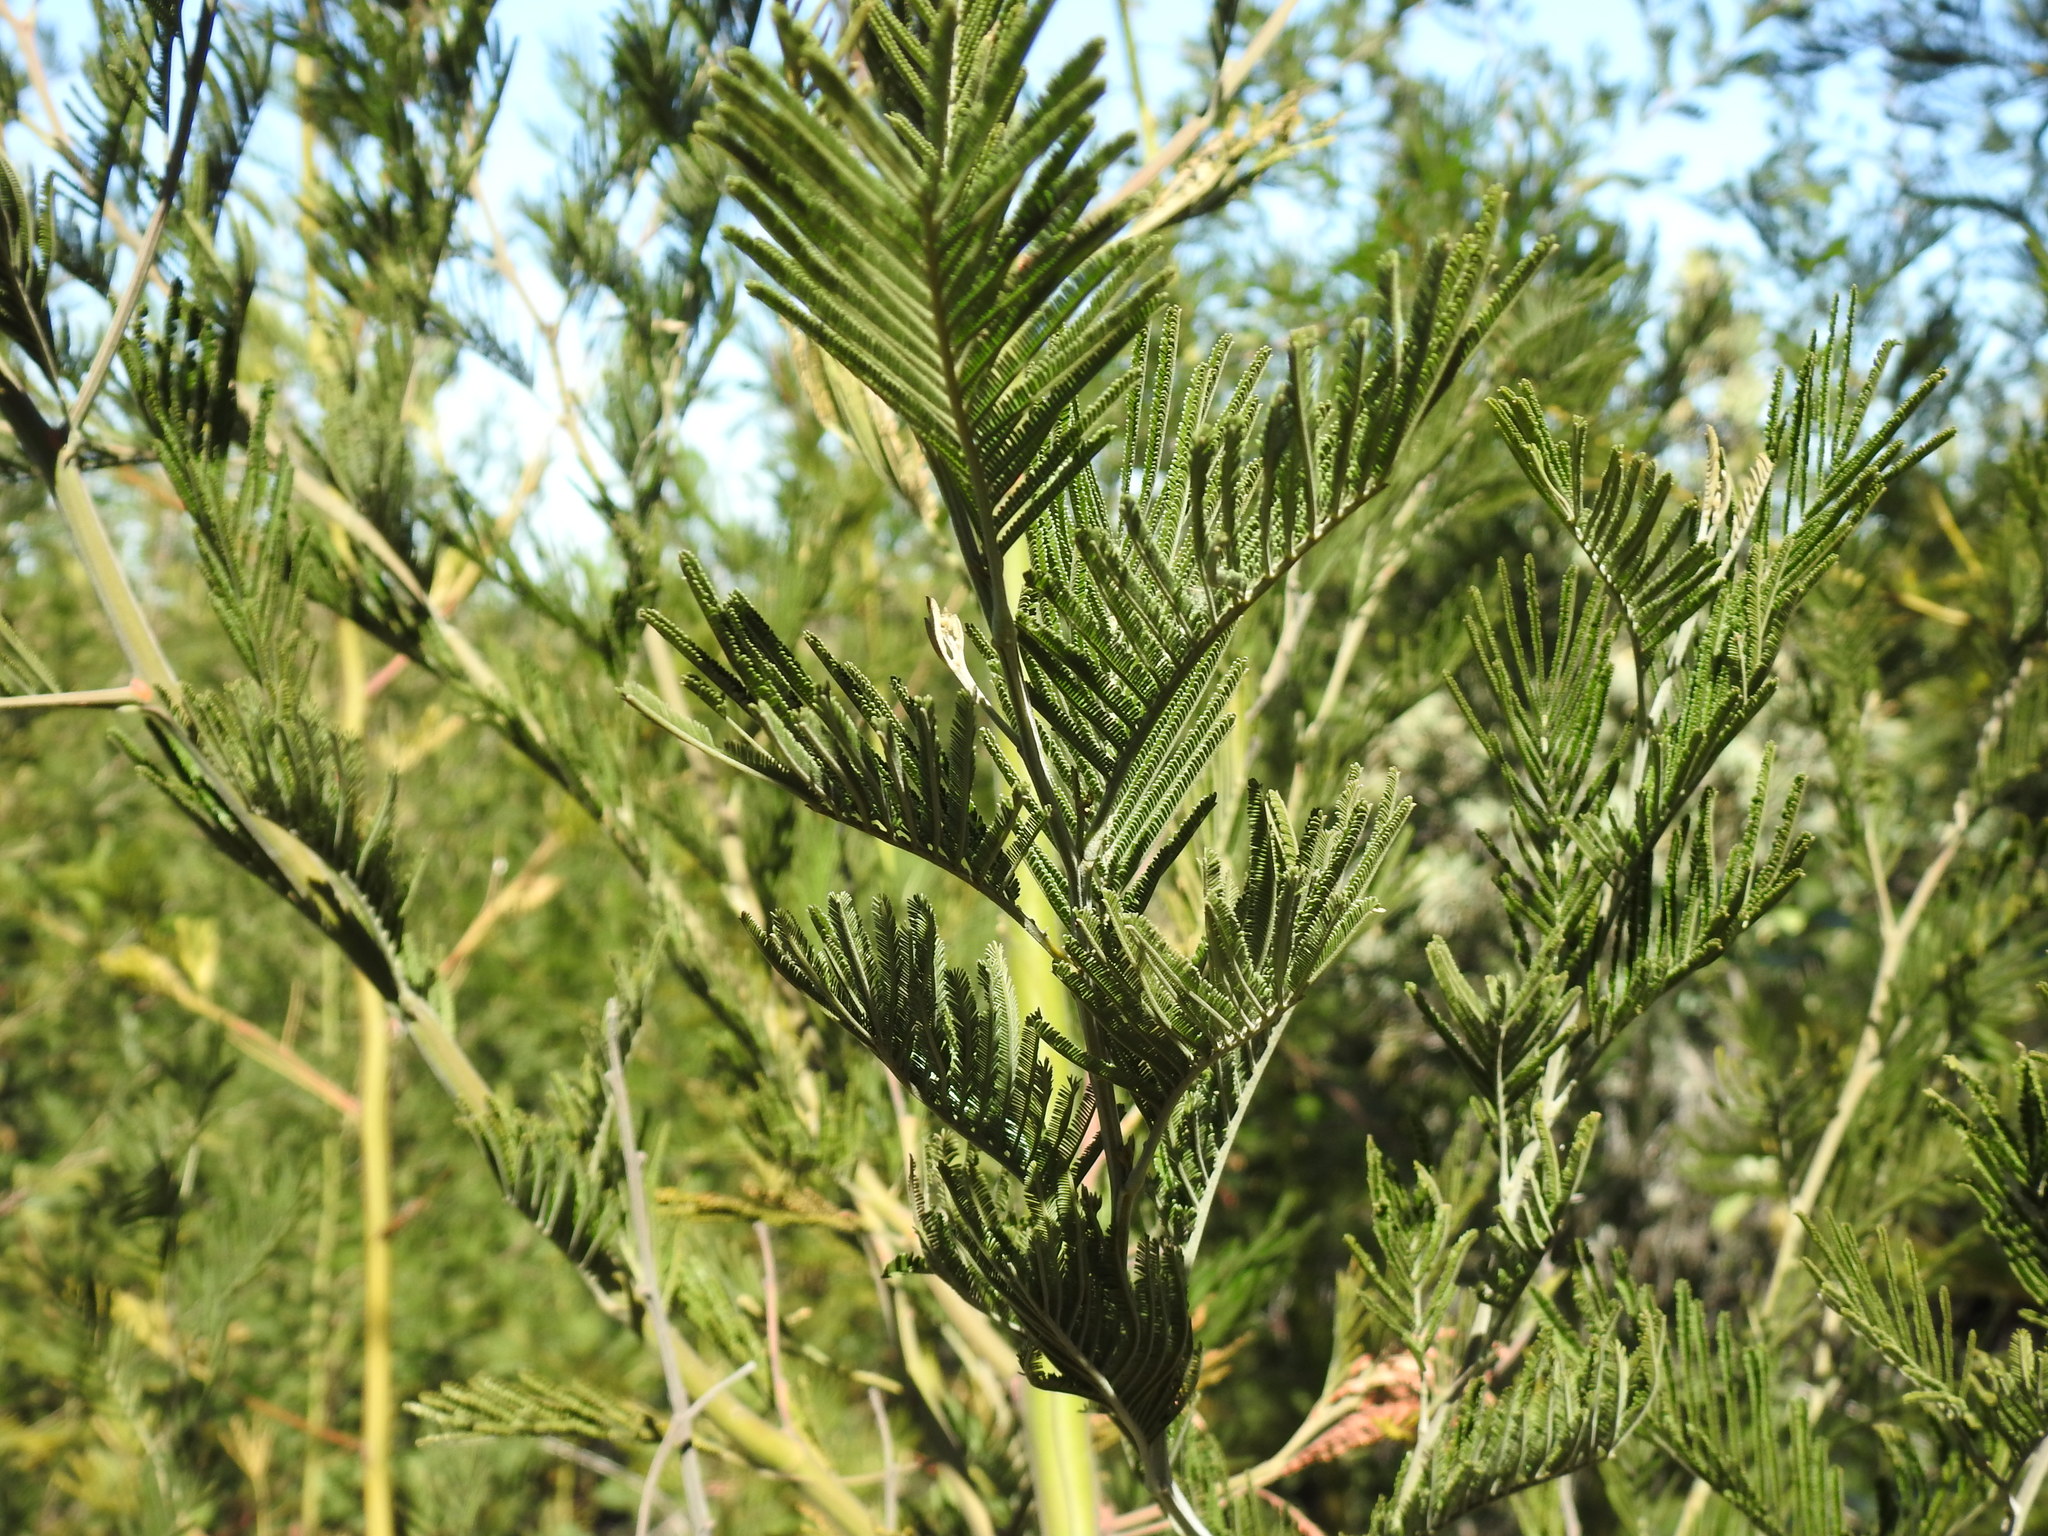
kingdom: Plantae
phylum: Tracheophyta
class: Magnoliopsida
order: Fabales
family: Fabaceae
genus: Acacia
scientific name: Acacia mearnsii
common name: Black wattle
